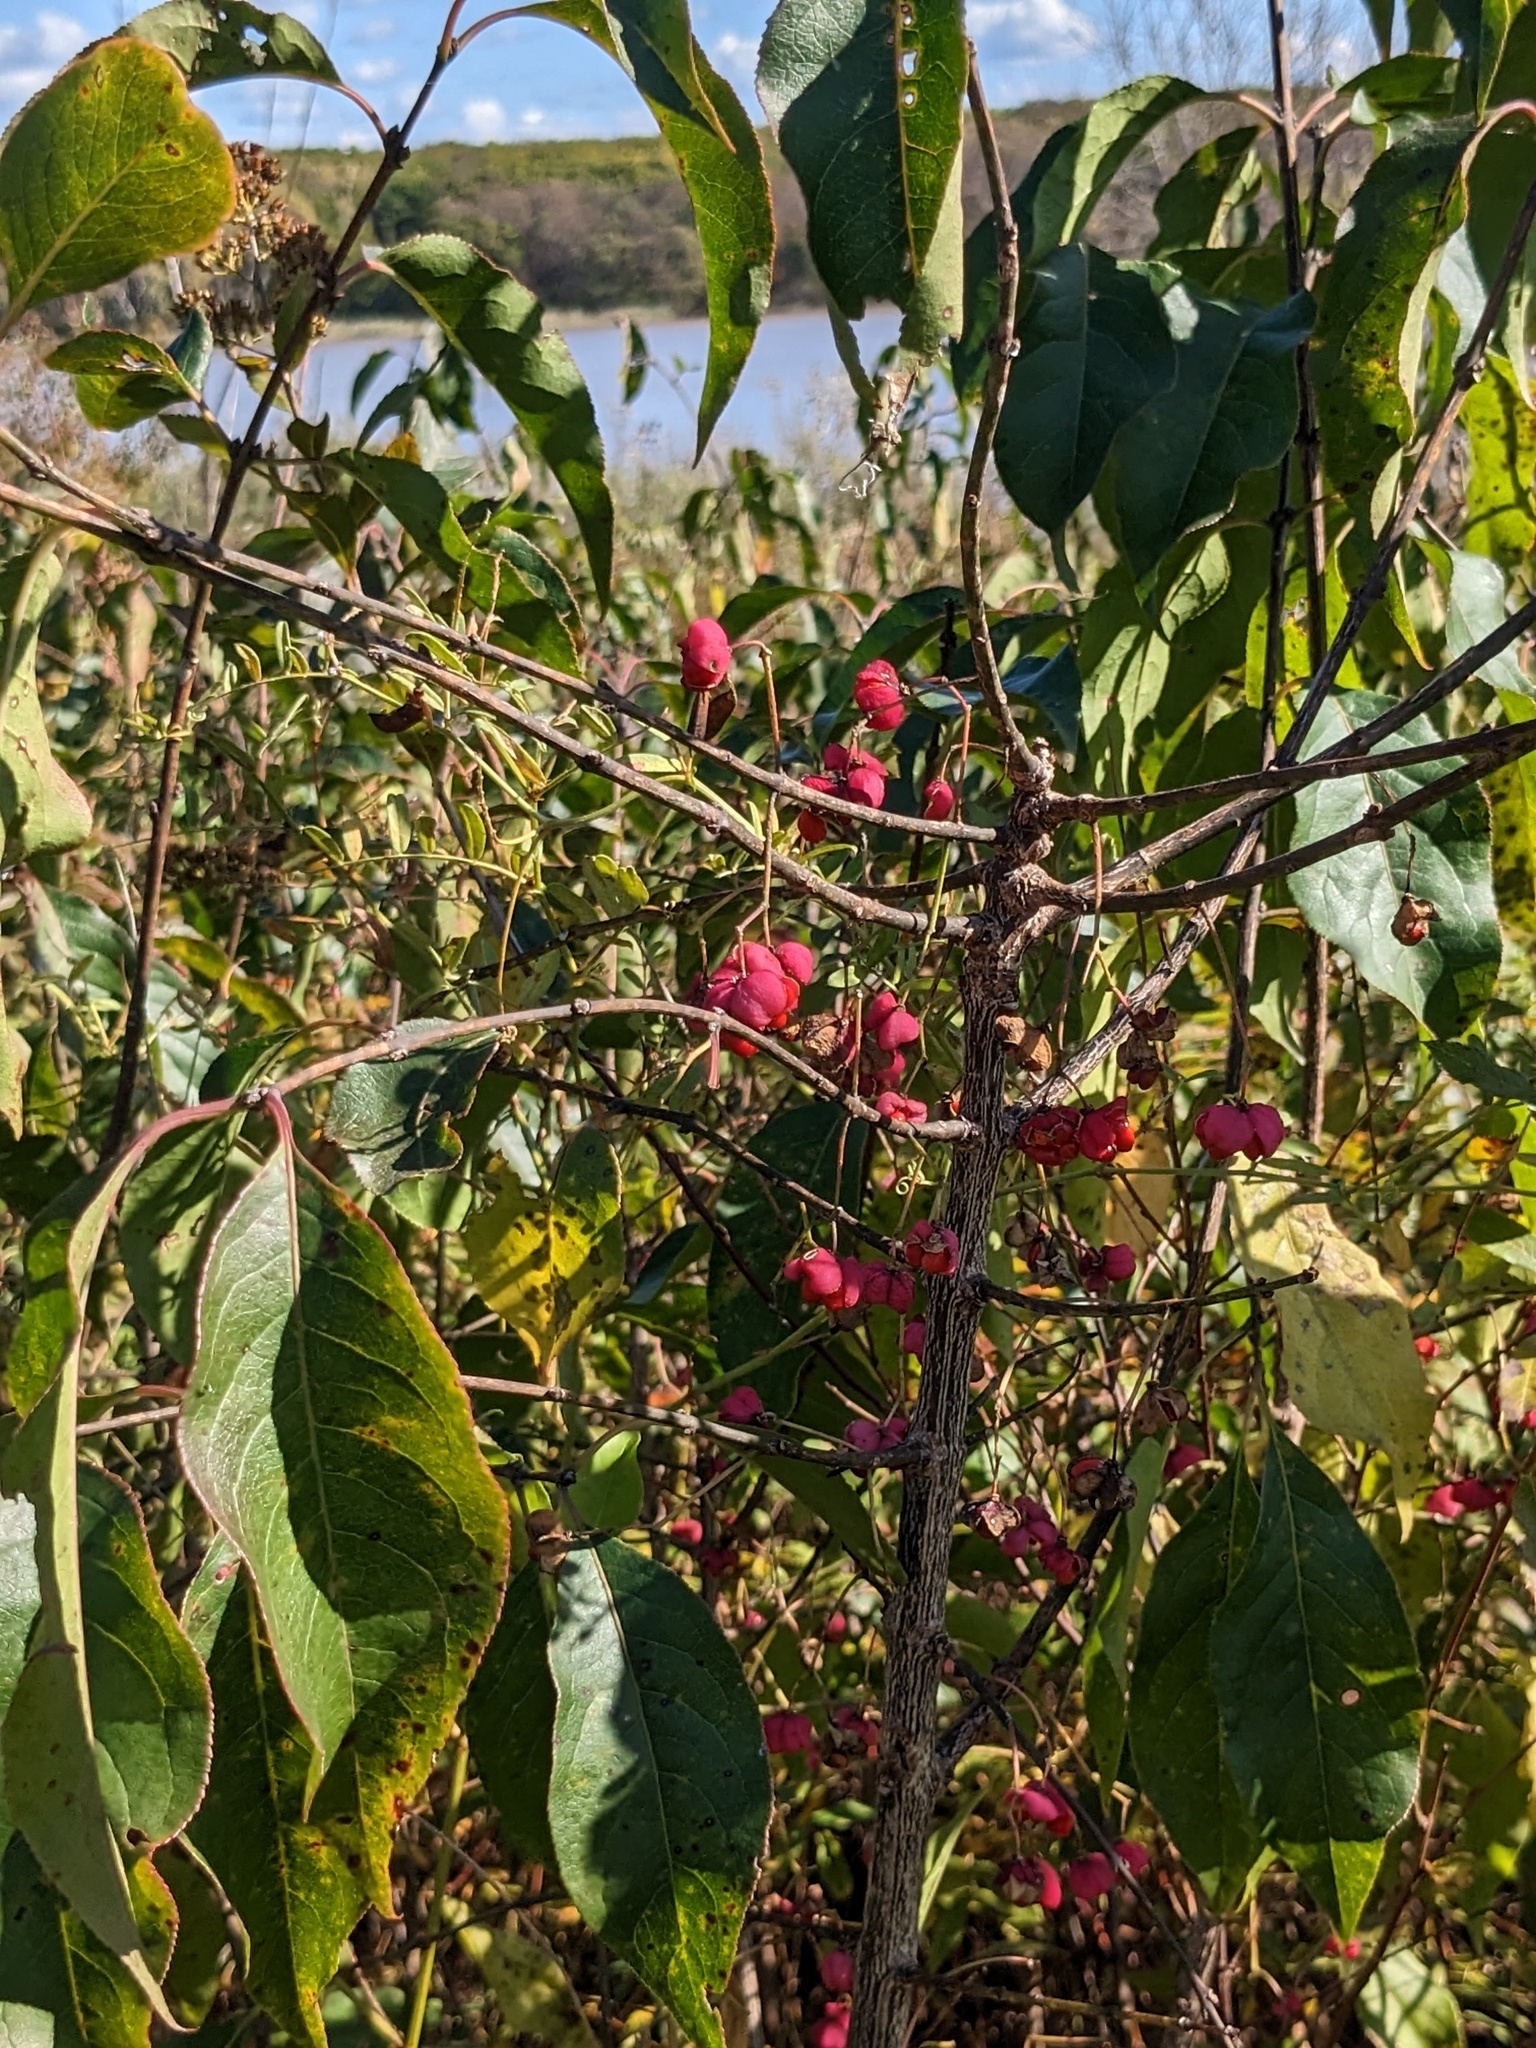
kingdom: Plantae
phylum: Tracheophyta
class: Magnoliopsida
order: Celastrales
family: Celastraceae
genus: Euonymus
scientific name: Euonymus maackii
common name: Hamilton's spindletree
